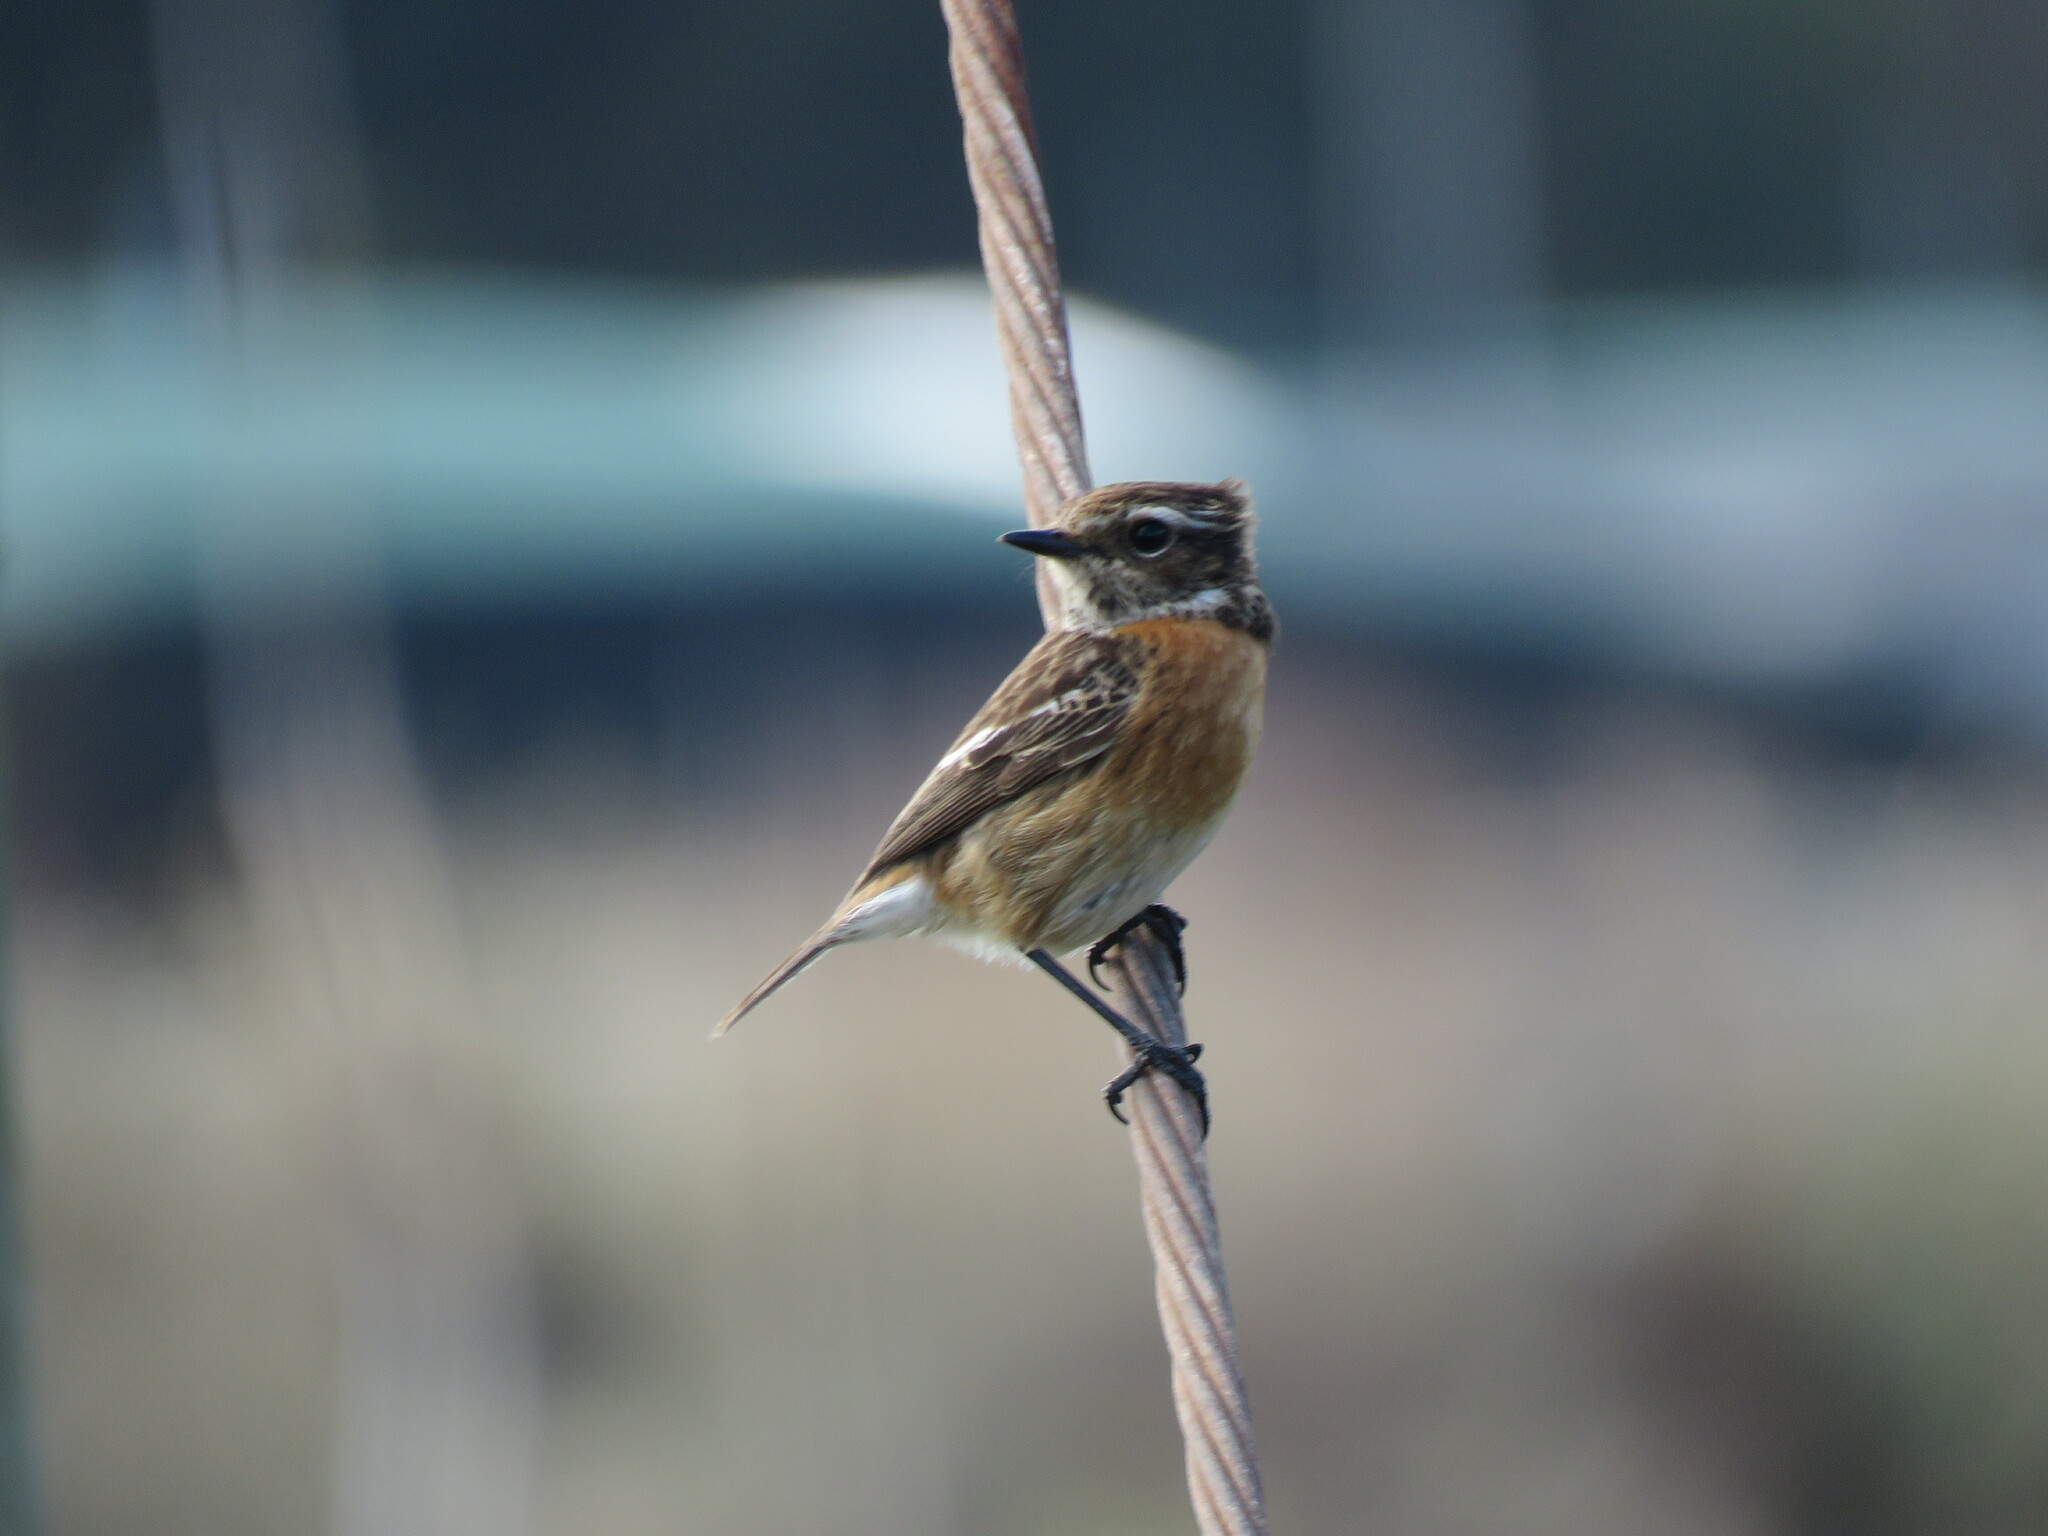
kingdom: Animalia
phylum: Chordata
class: Aves
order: Passeriformes
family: Muscicapidae
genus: Saxicola
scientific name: Saxicola rubicola
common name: European stonechat
